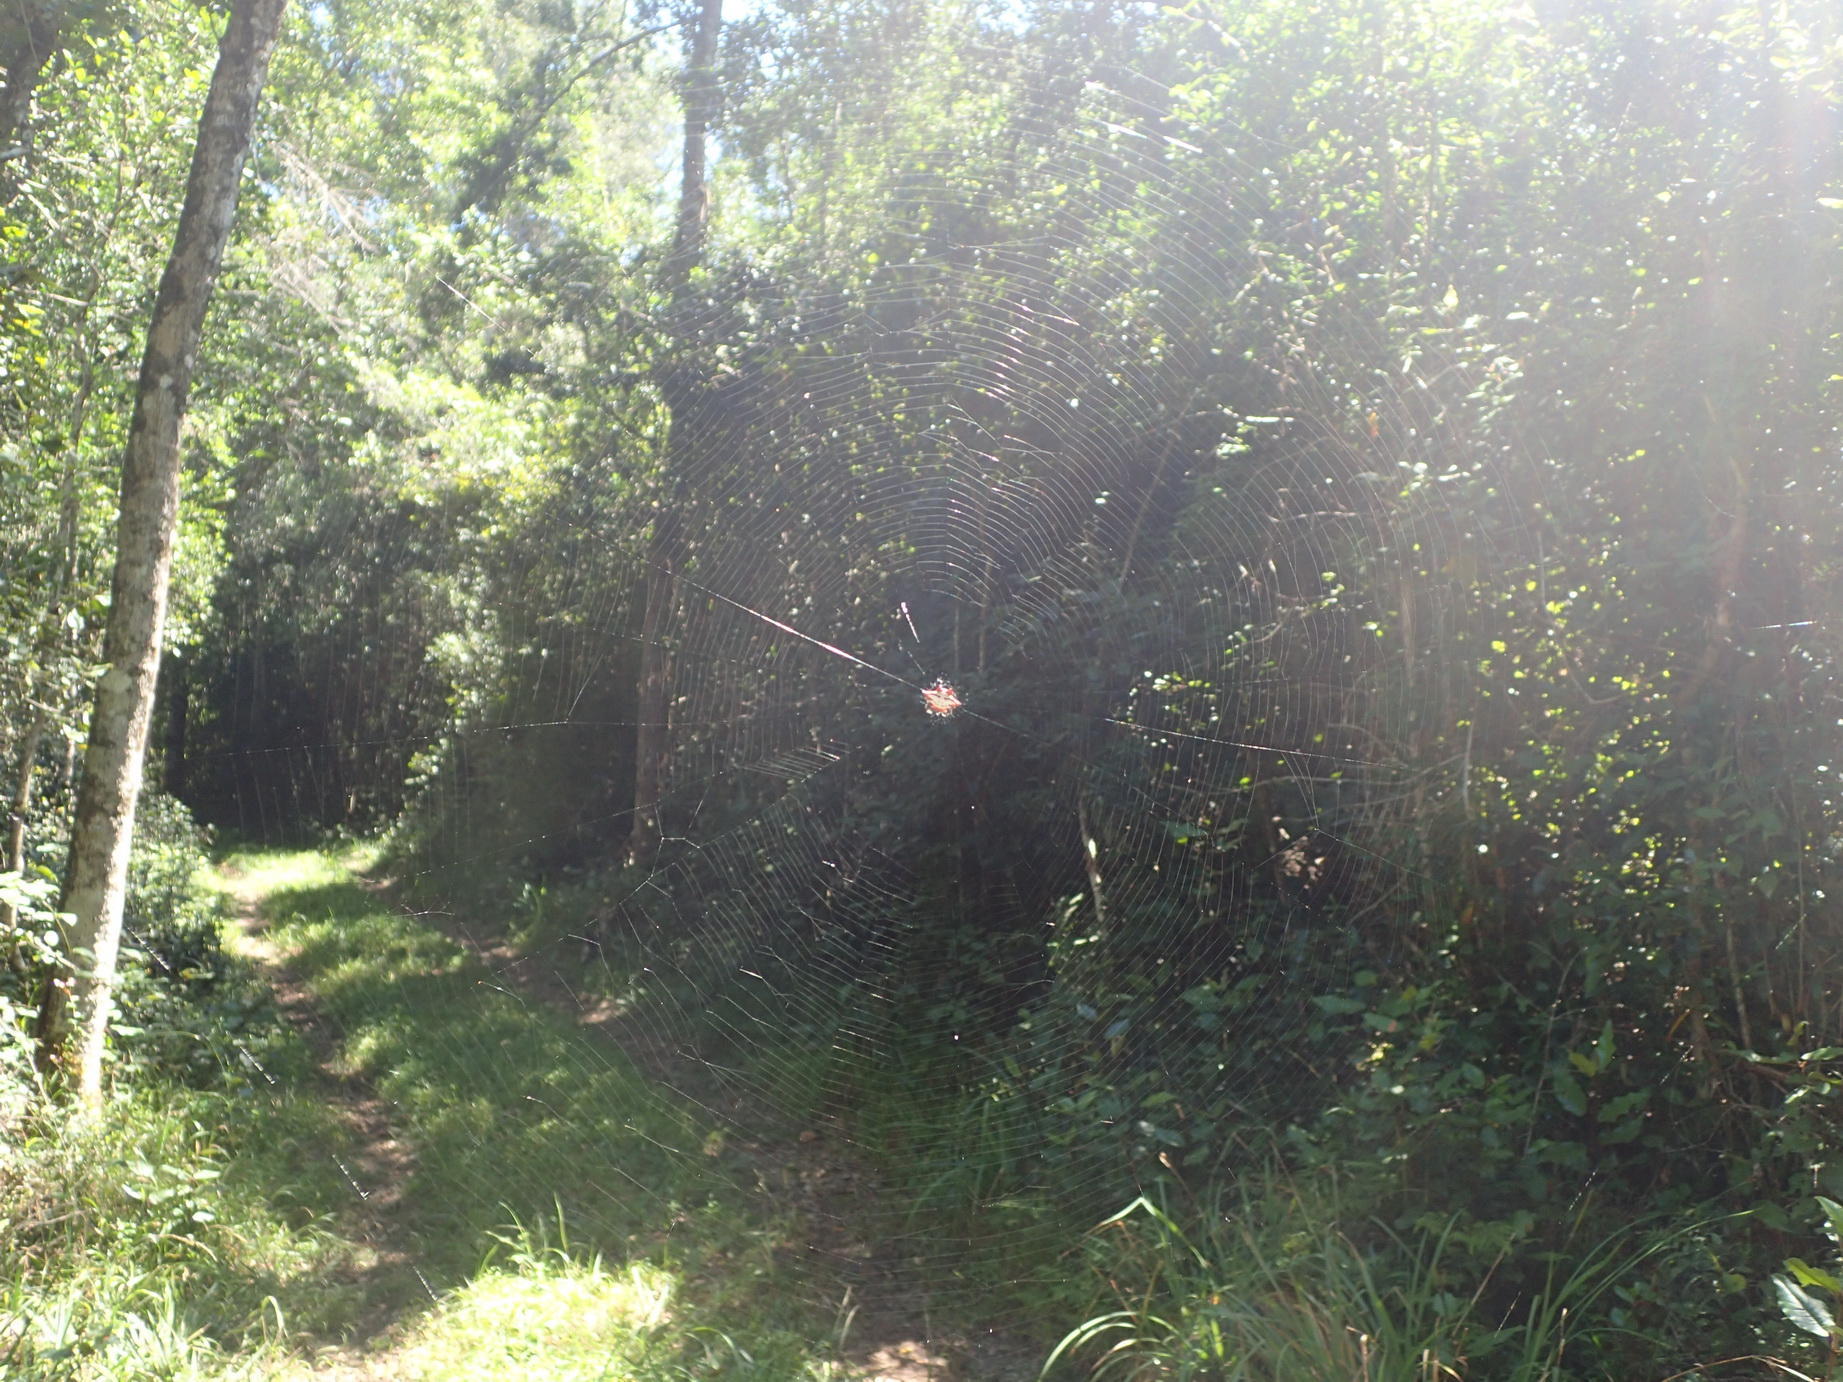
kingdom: Animalia
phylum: Arthropoda
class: Arachnida
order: Araneae
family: Araneidae
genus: Gasteracantha
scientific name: Gasteracantha sanguinolenta
